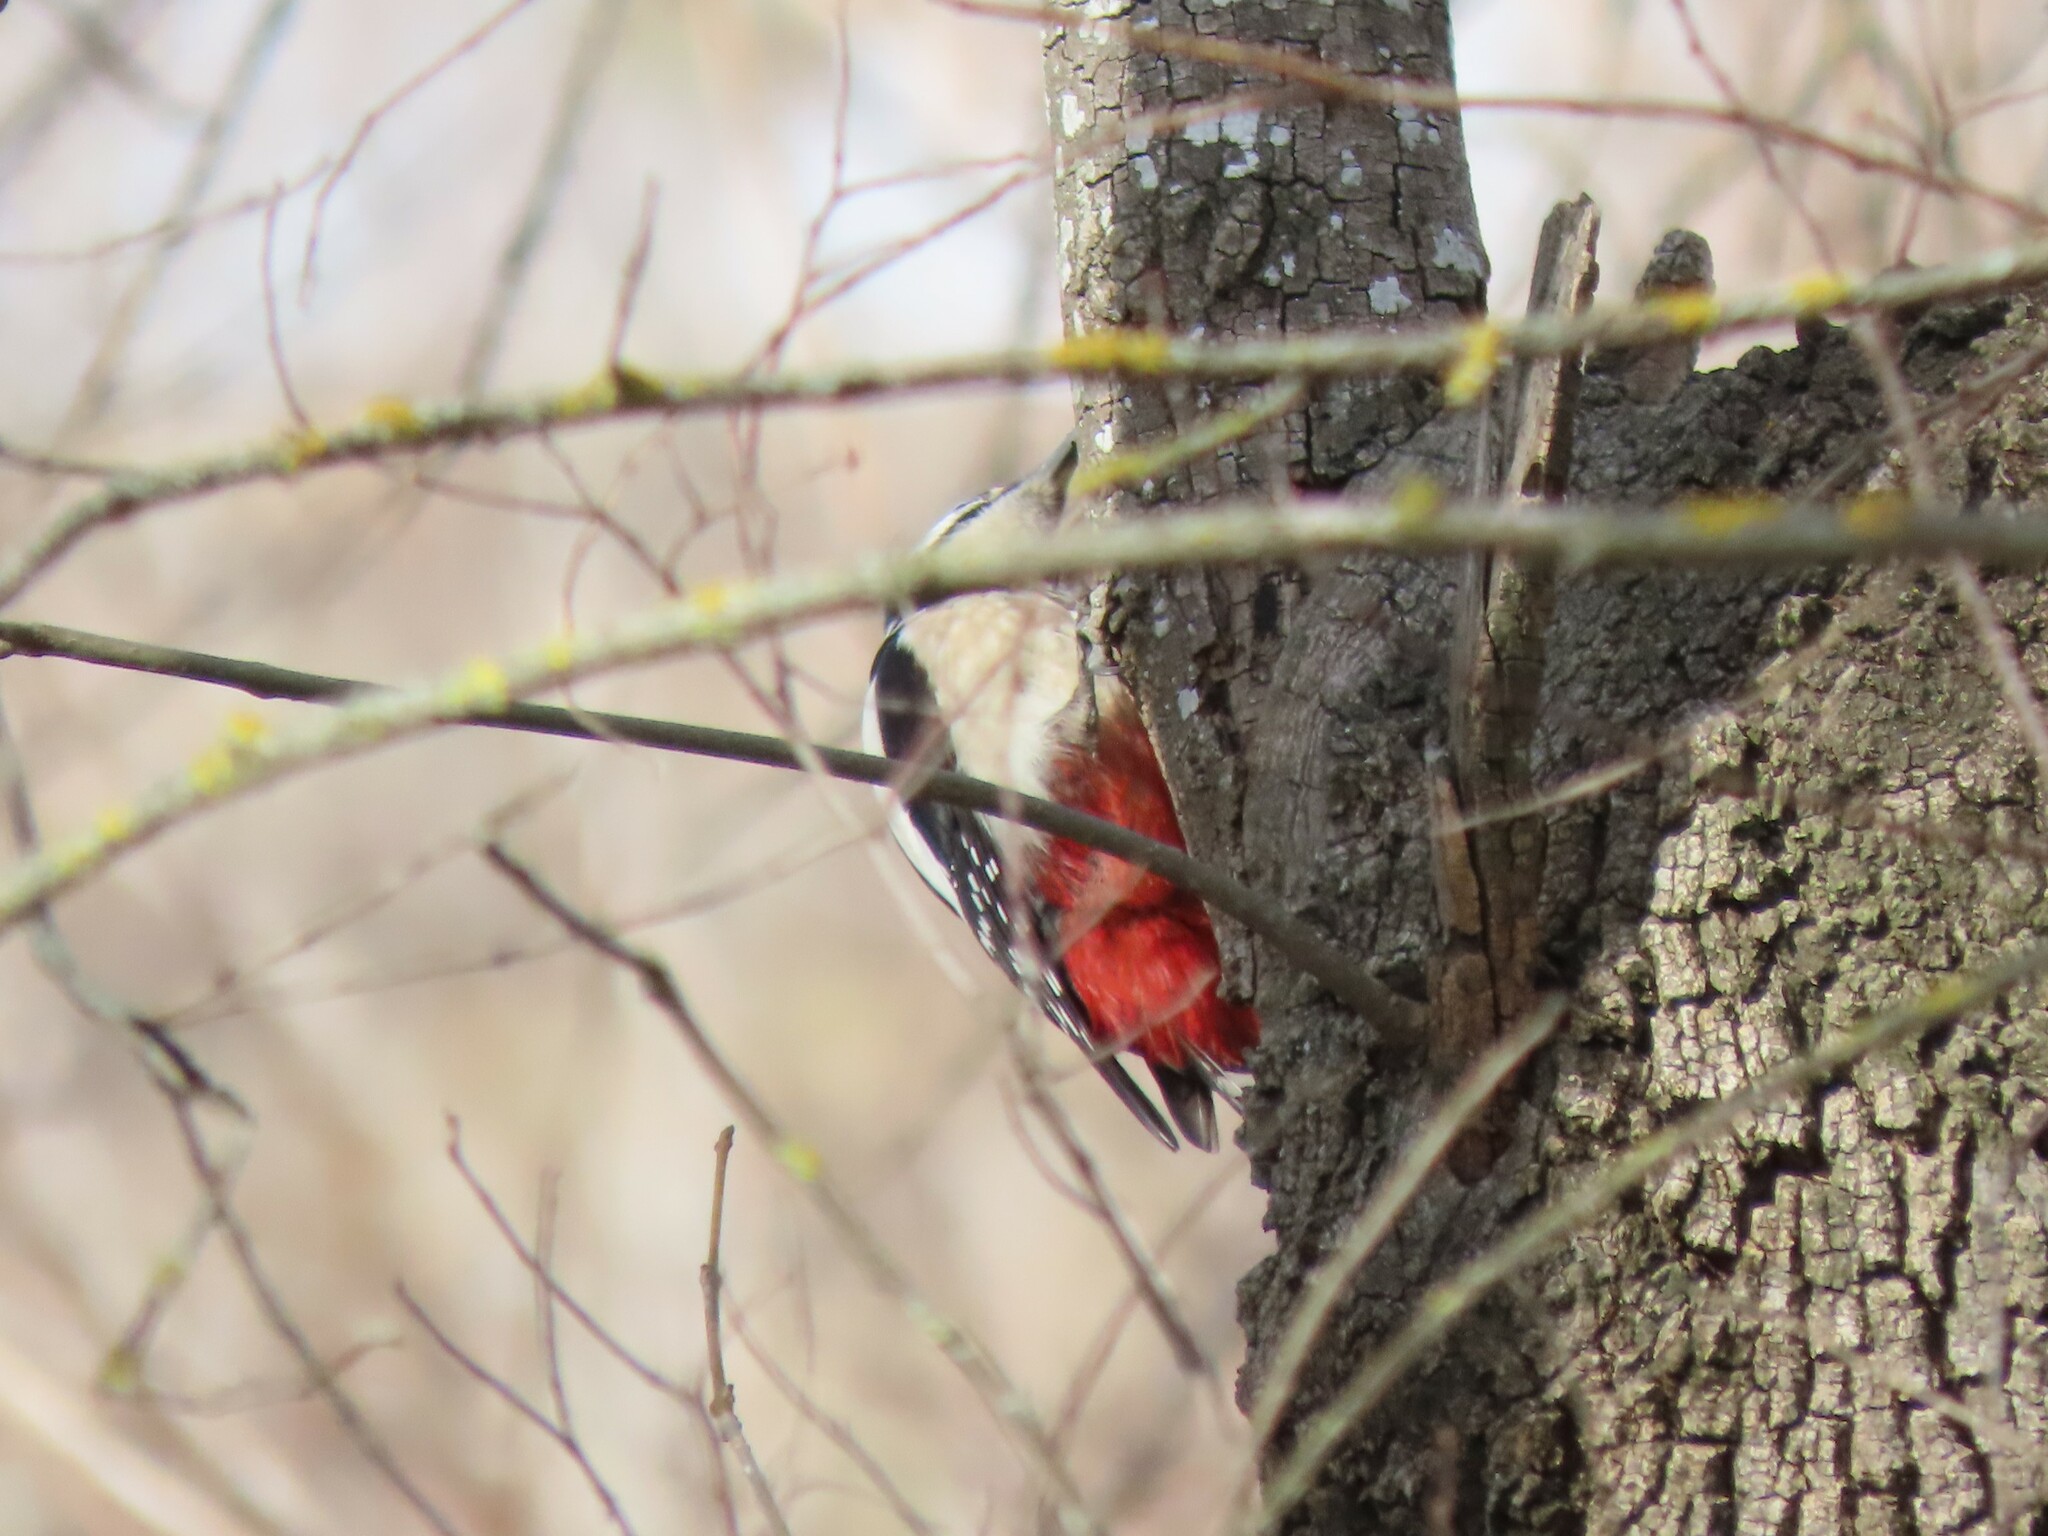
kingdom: Animalia
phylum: Chordata
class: Aves
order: Piciformes
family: Picidae
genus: Dendrocopos
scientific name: Dendrocopos major
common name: Great spotted woodpecker
